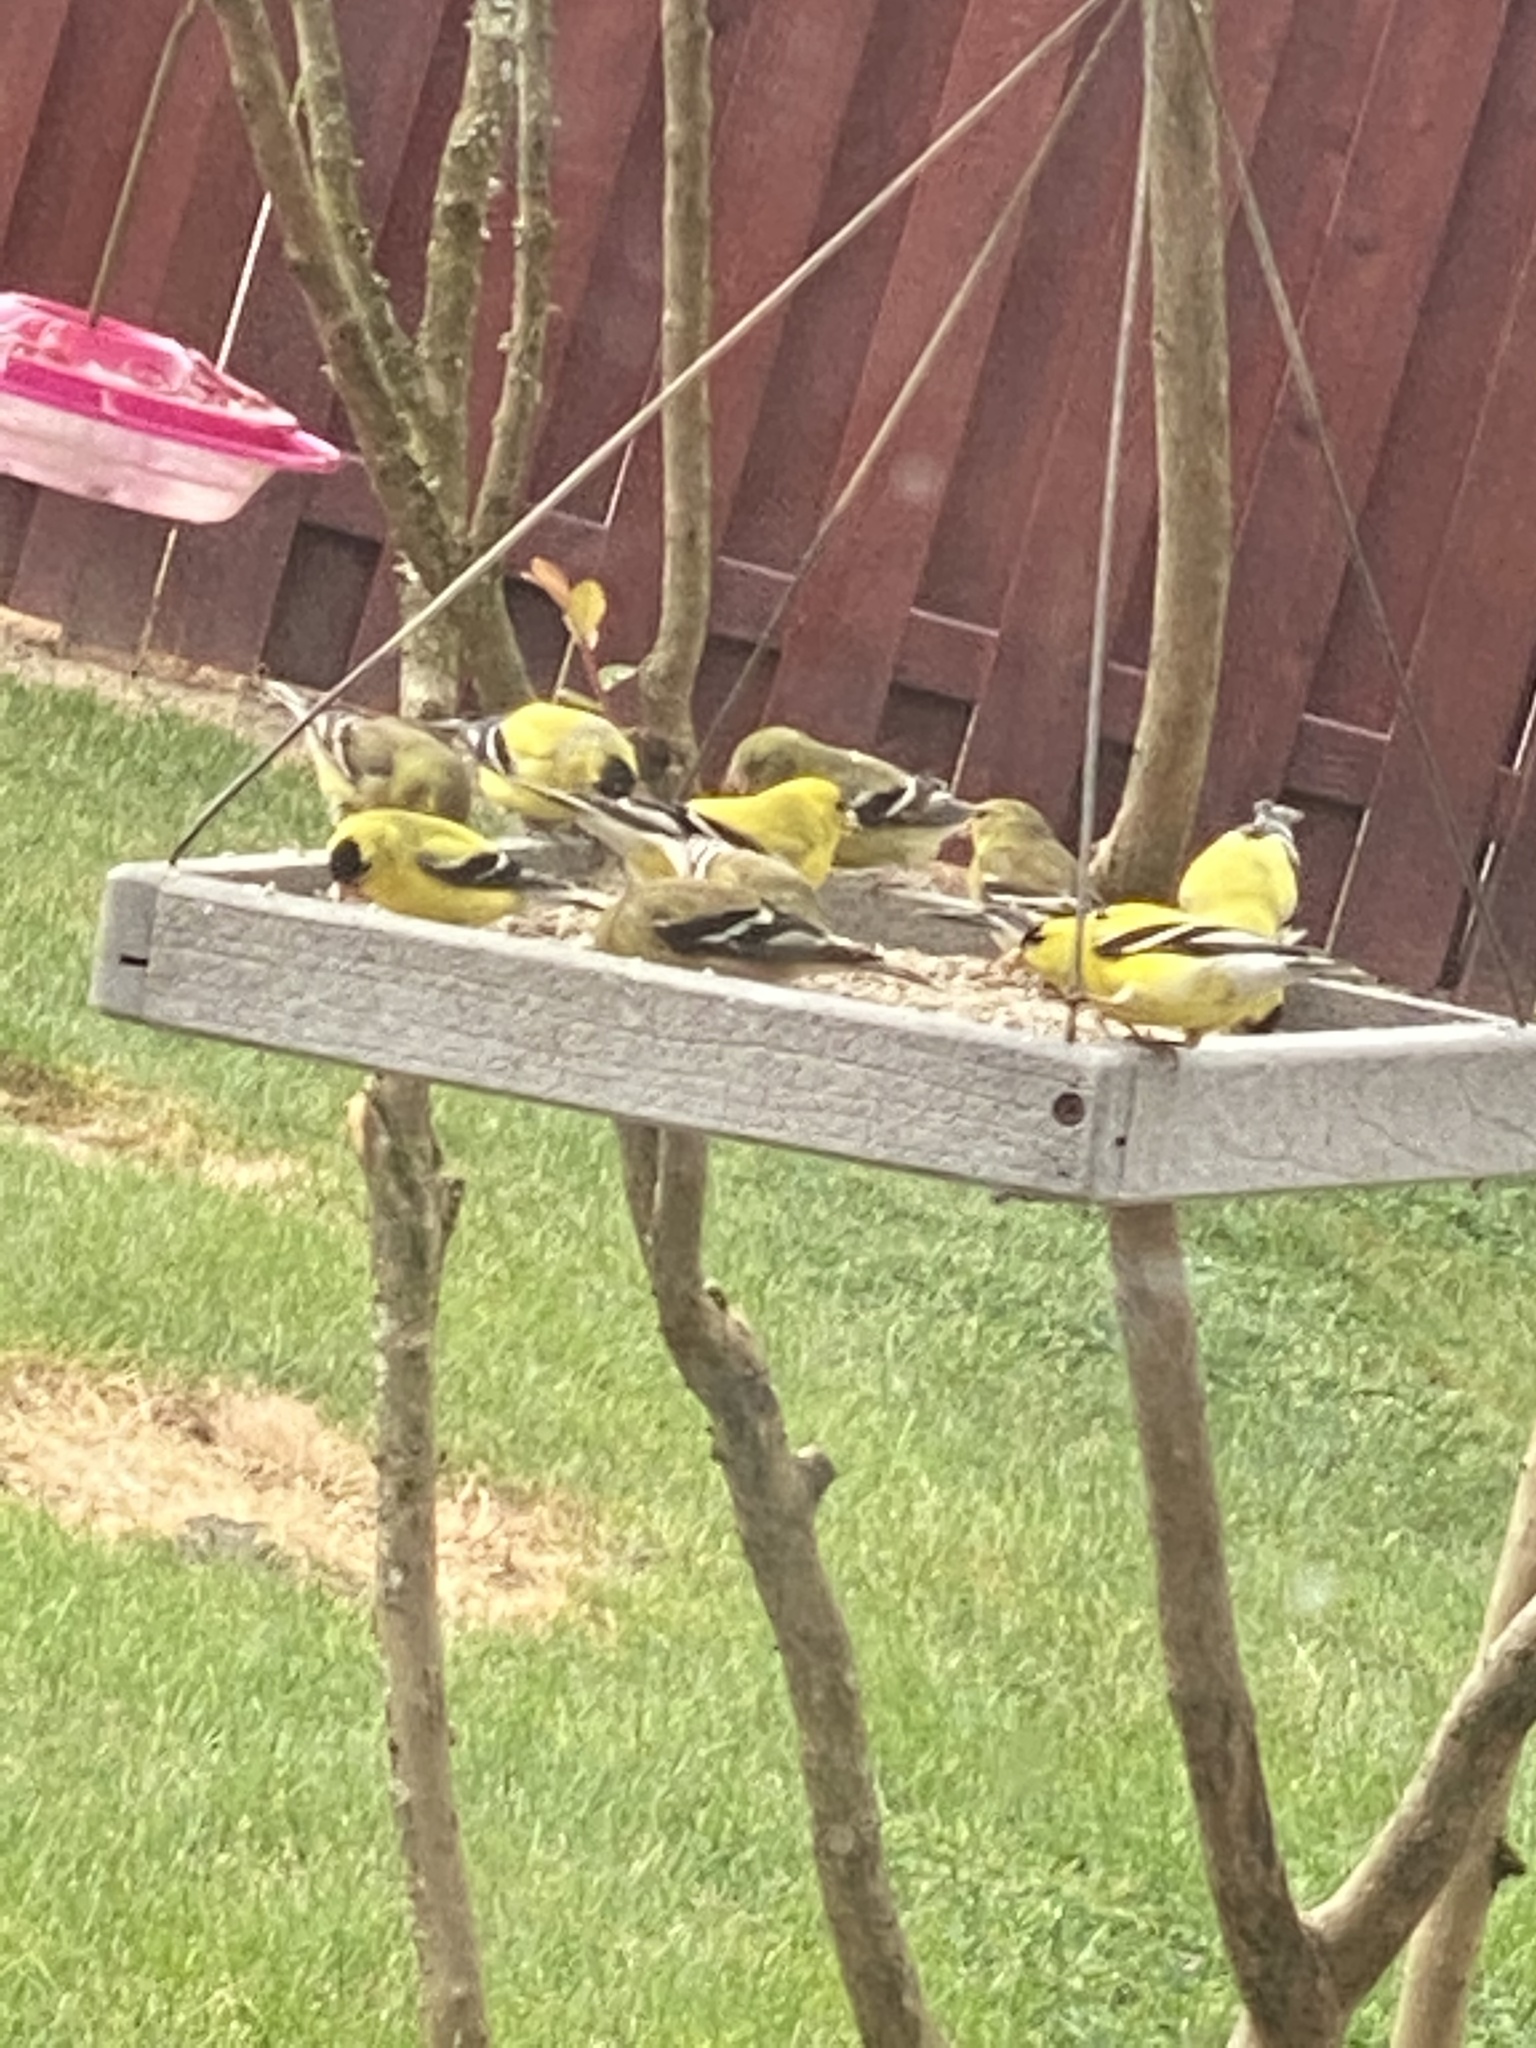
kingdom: Animalia
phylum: Chordata
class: Aves
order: Passeriformes
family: Fringillidae
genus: Spinus
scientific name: Spinus tristis
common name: American goldfinch
